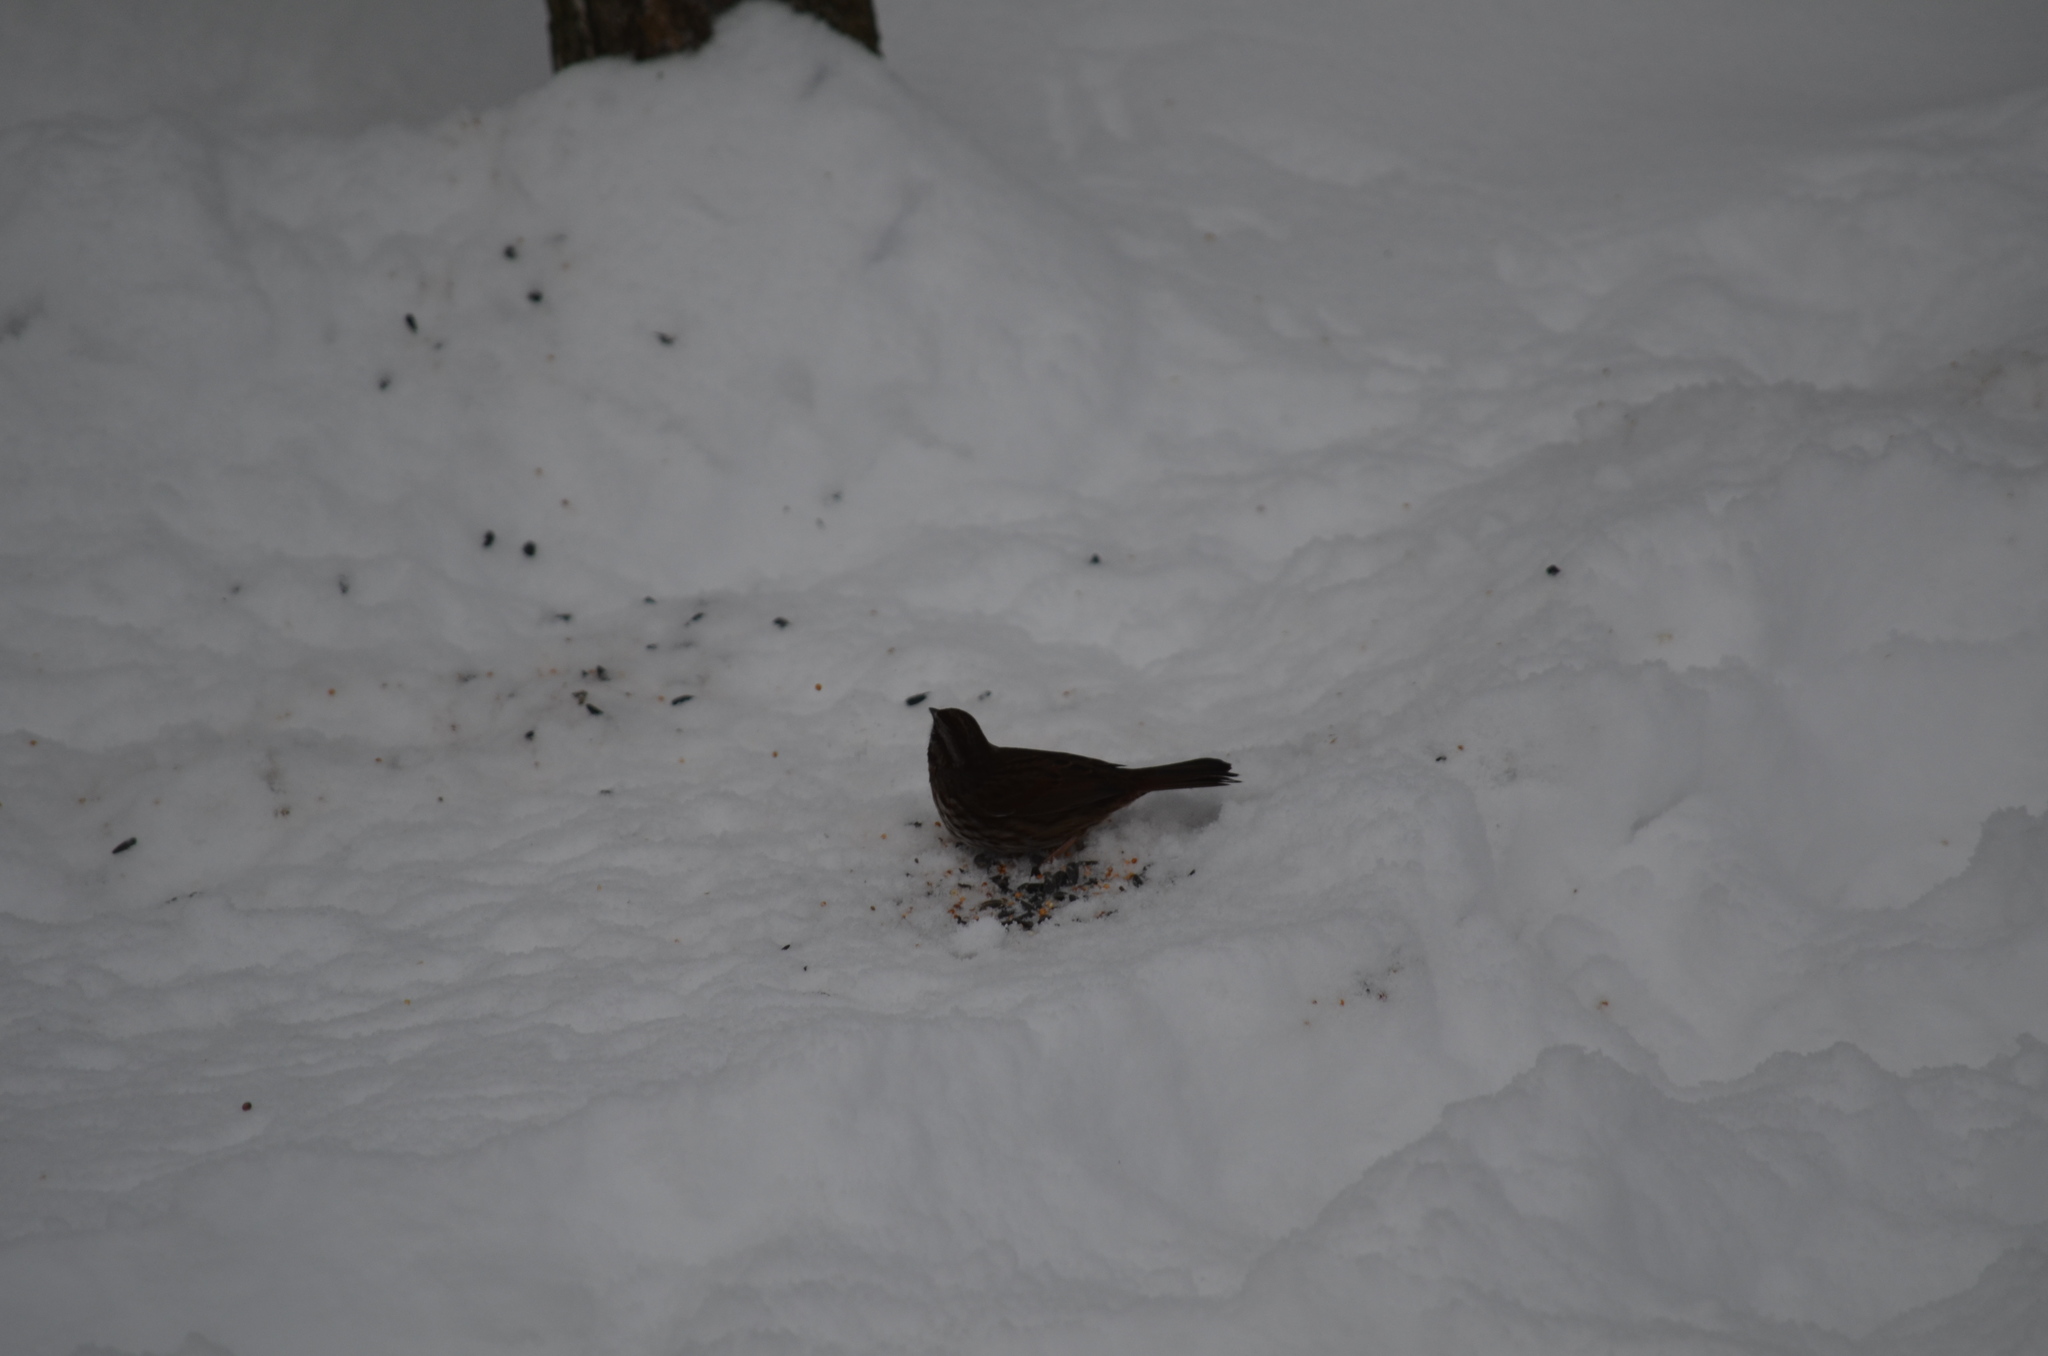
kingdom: Animalia
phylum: Chordata
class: Aves
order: Passeriformes
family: Passerellidae
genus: Melospiza
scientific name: Melospiza melodia
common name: Song sparrow
